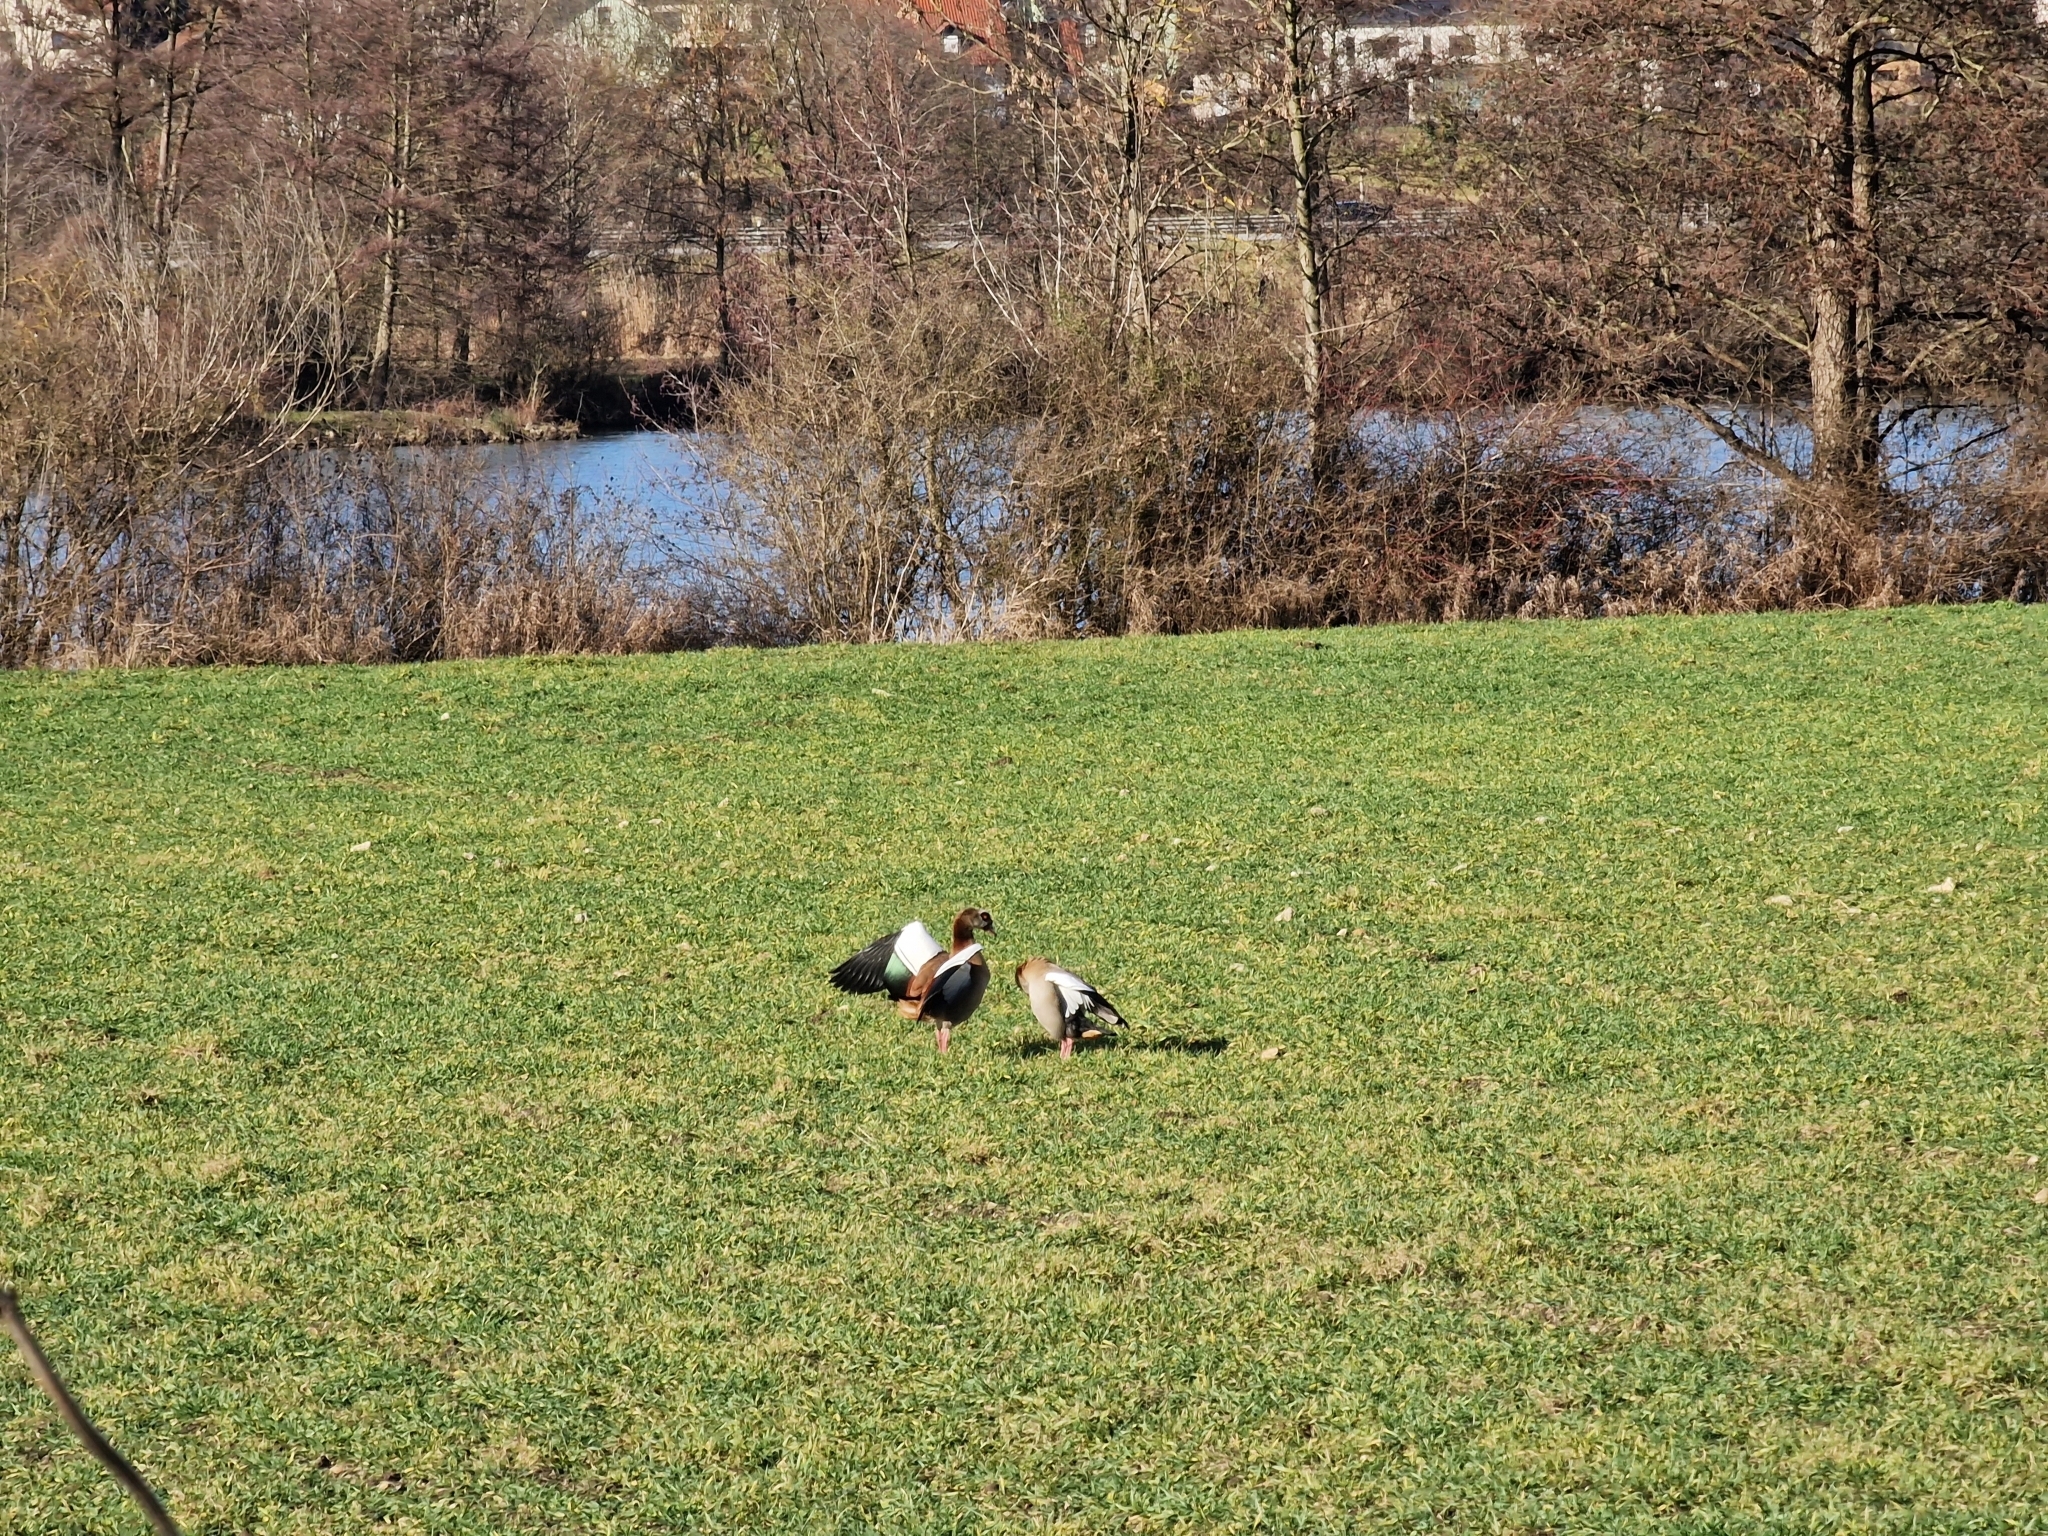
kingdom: Animalia
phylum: Chordata
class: Aves
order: Anseriformes
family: Anatidae
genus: Alopochen
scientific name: Alopochen aegyptiaca
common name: Egyptian goose
